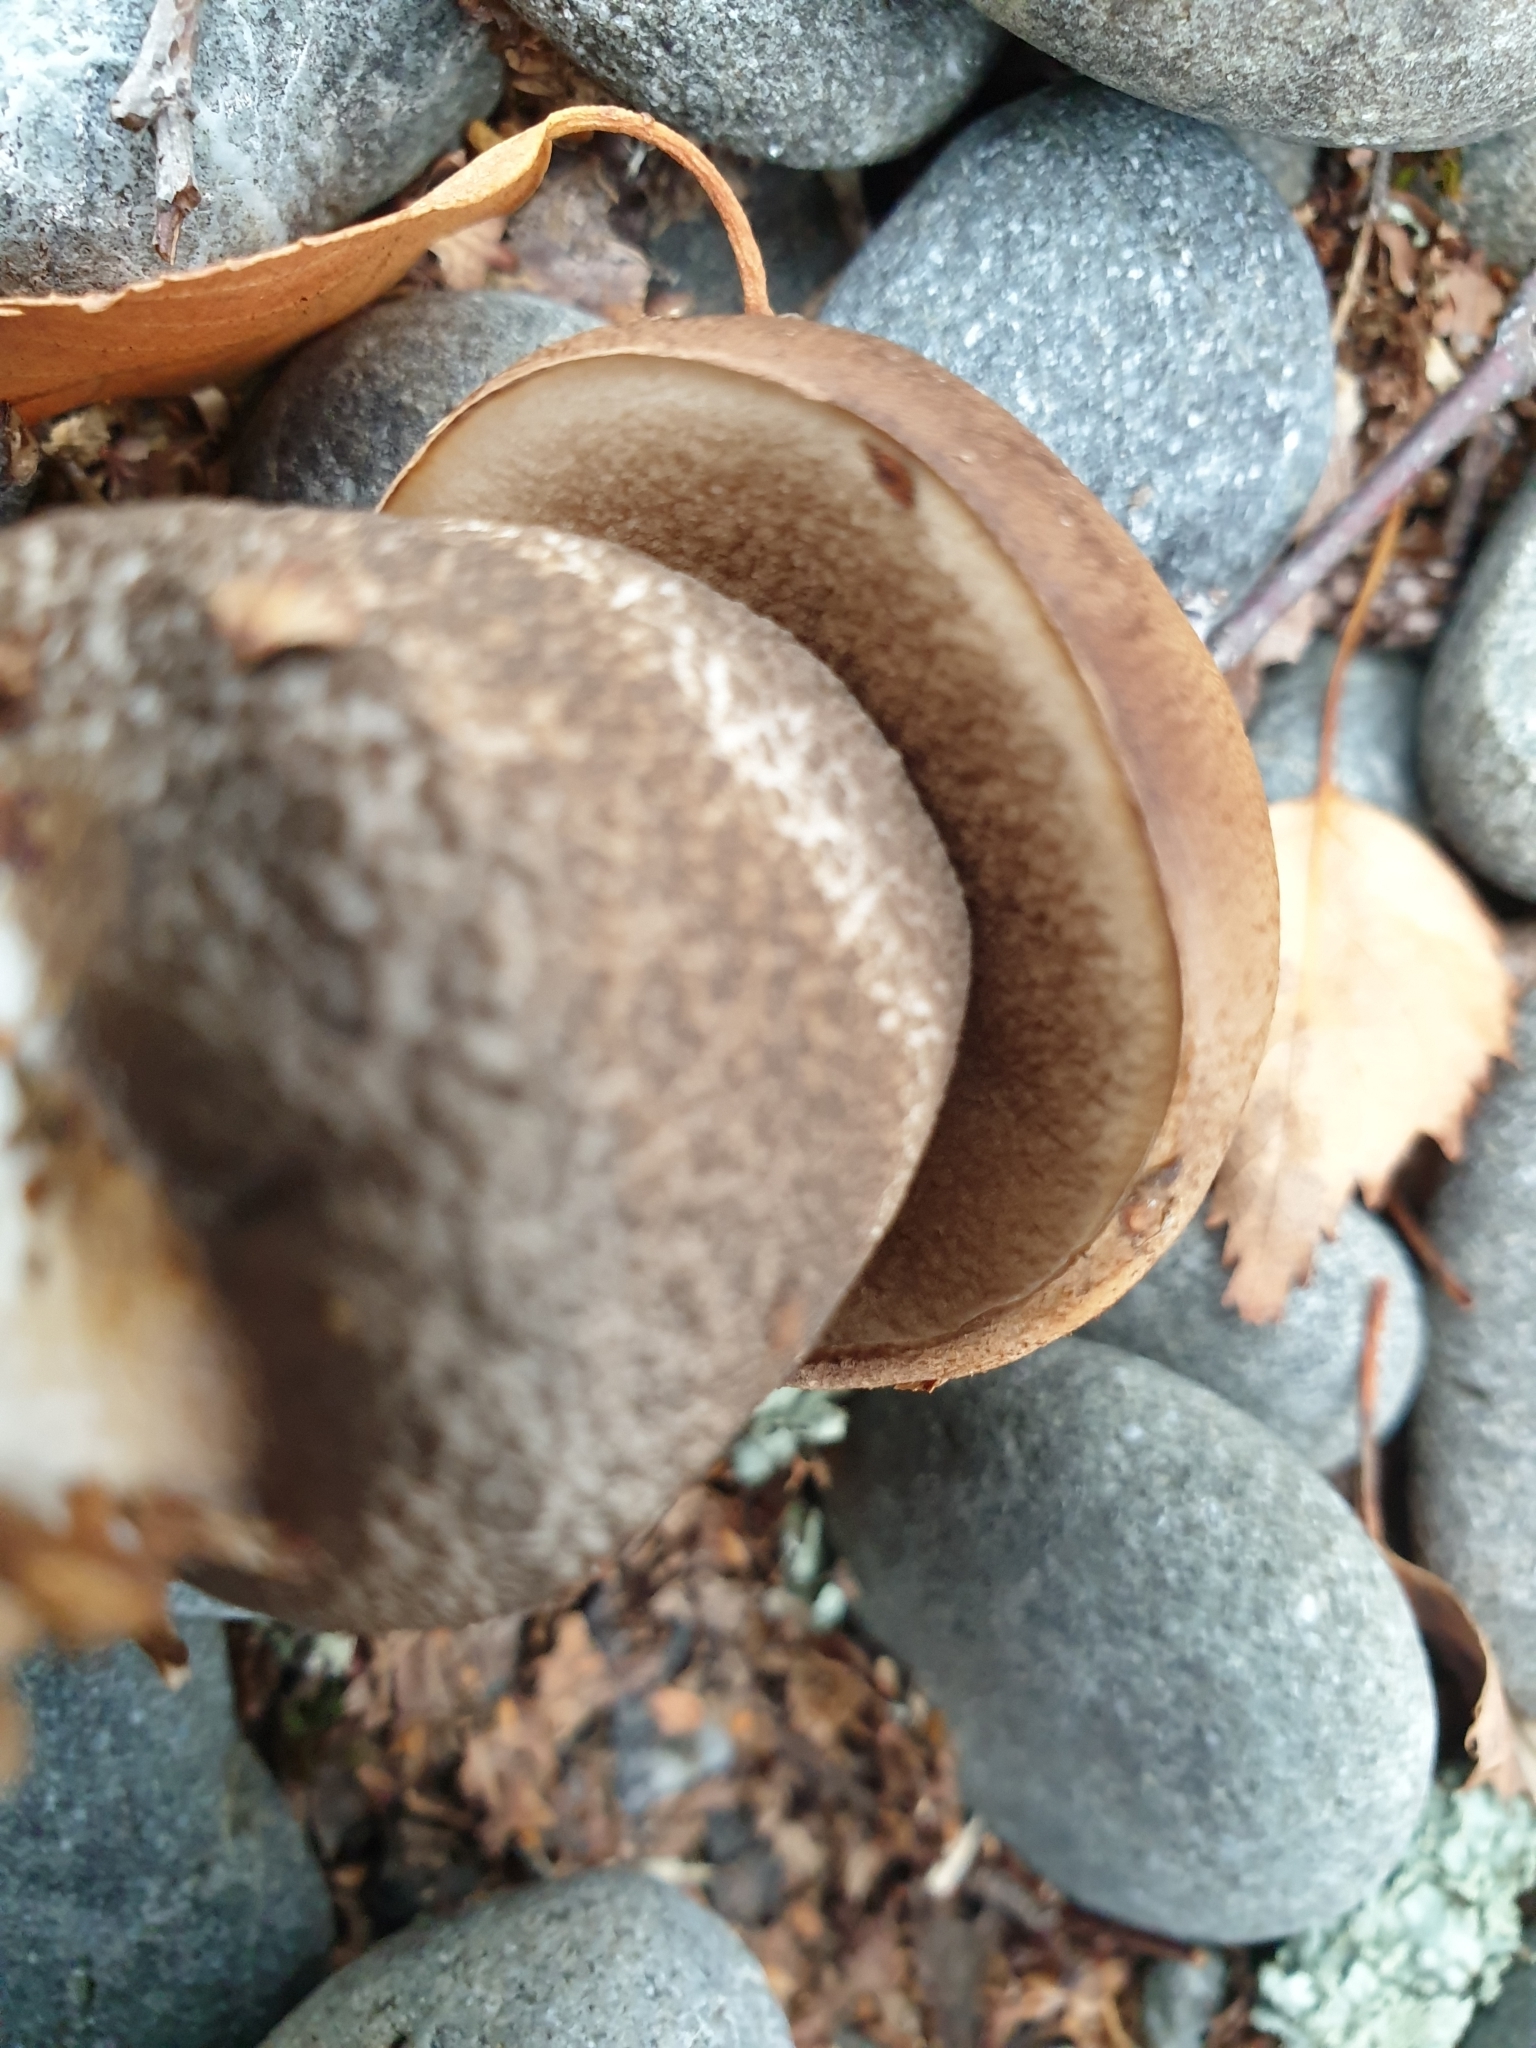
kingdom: Fungi
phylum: Basidiomycota
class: Agaricomycetes
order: Boletales
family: Boletaceae
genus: Leccinum
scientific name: Leccinum scabrum
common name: Blushing bolete
